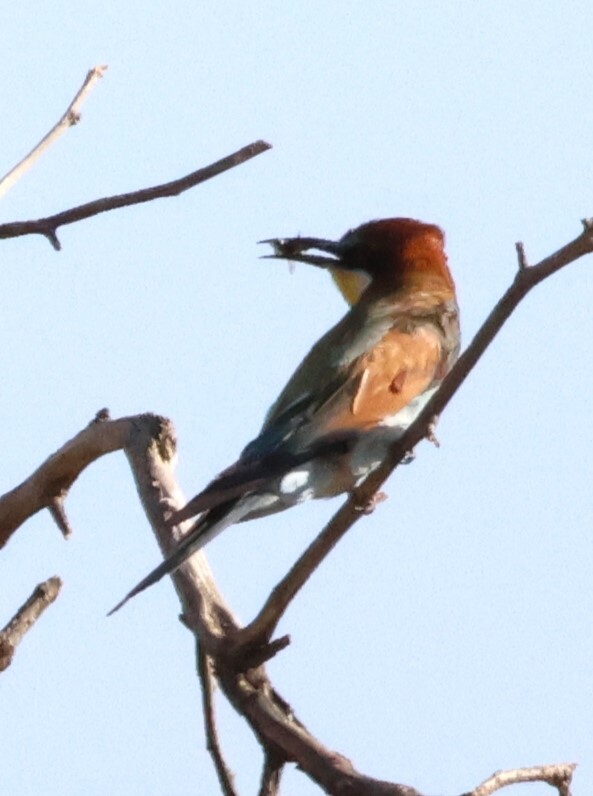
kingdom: Animalia
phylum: Chordata
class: Aves
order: Coraciiformes
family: Meropidae
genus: Merops
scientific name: Merops apiaster
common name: European bee-eater
